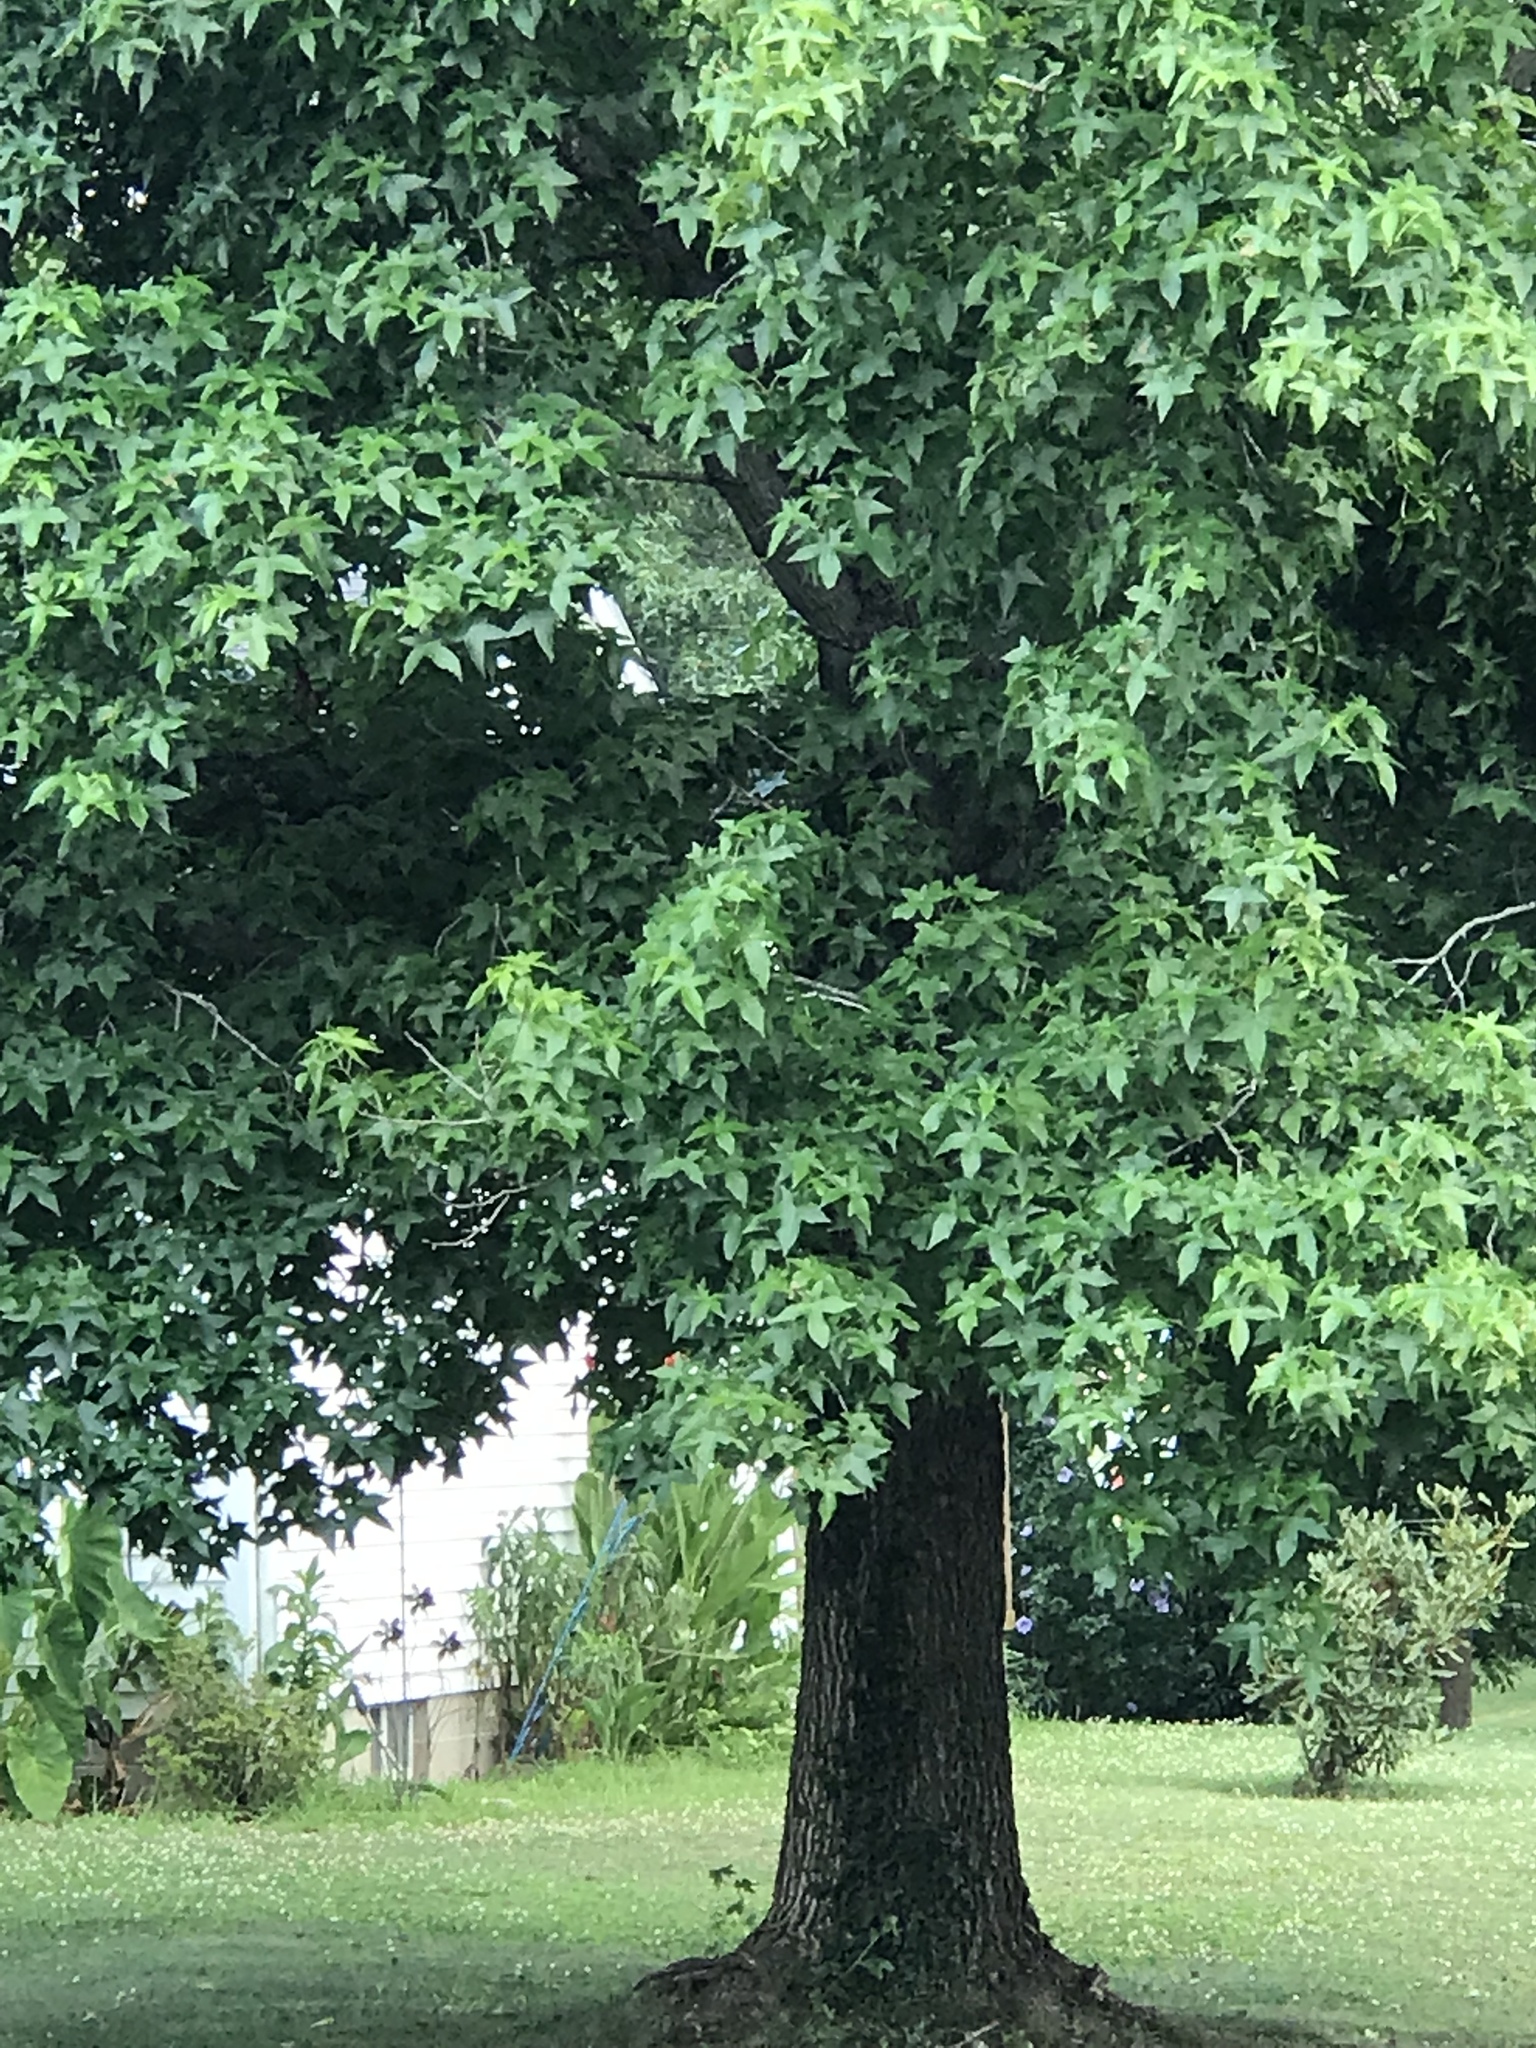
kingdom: Plantae
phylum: Tracheophyta
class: Magnoliopsida
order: Saxifragales
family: Altingiaceae
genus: Liquidambar
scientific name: Liquidambar styraciflua
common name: Sweet gum
